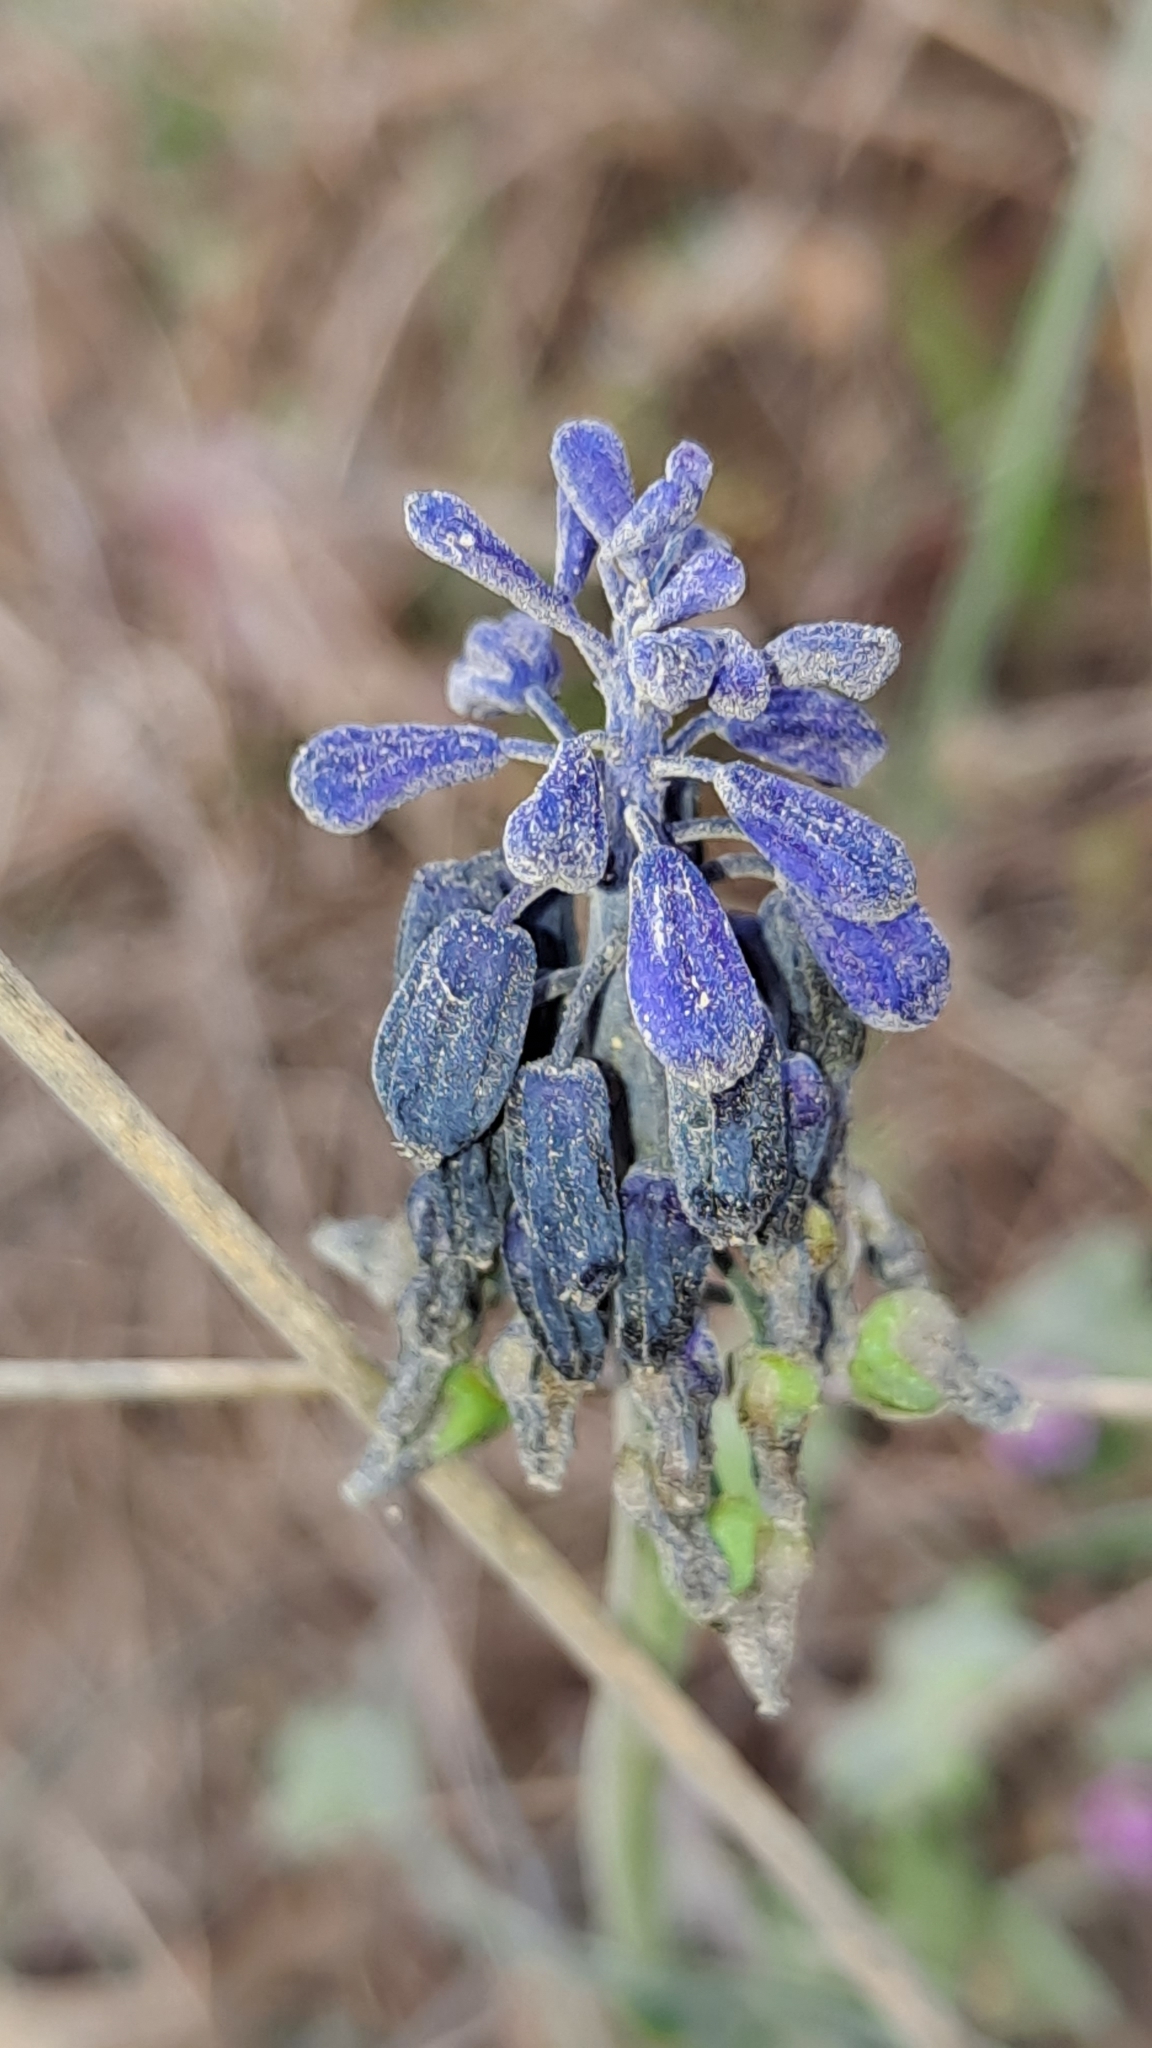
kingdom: Plantae
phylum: Tracheophyta
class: Liliopsida
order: Asparagales
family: Asparagaceae
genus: Muscari
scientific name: Muscari neglectum
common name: Grape-hyacinth
